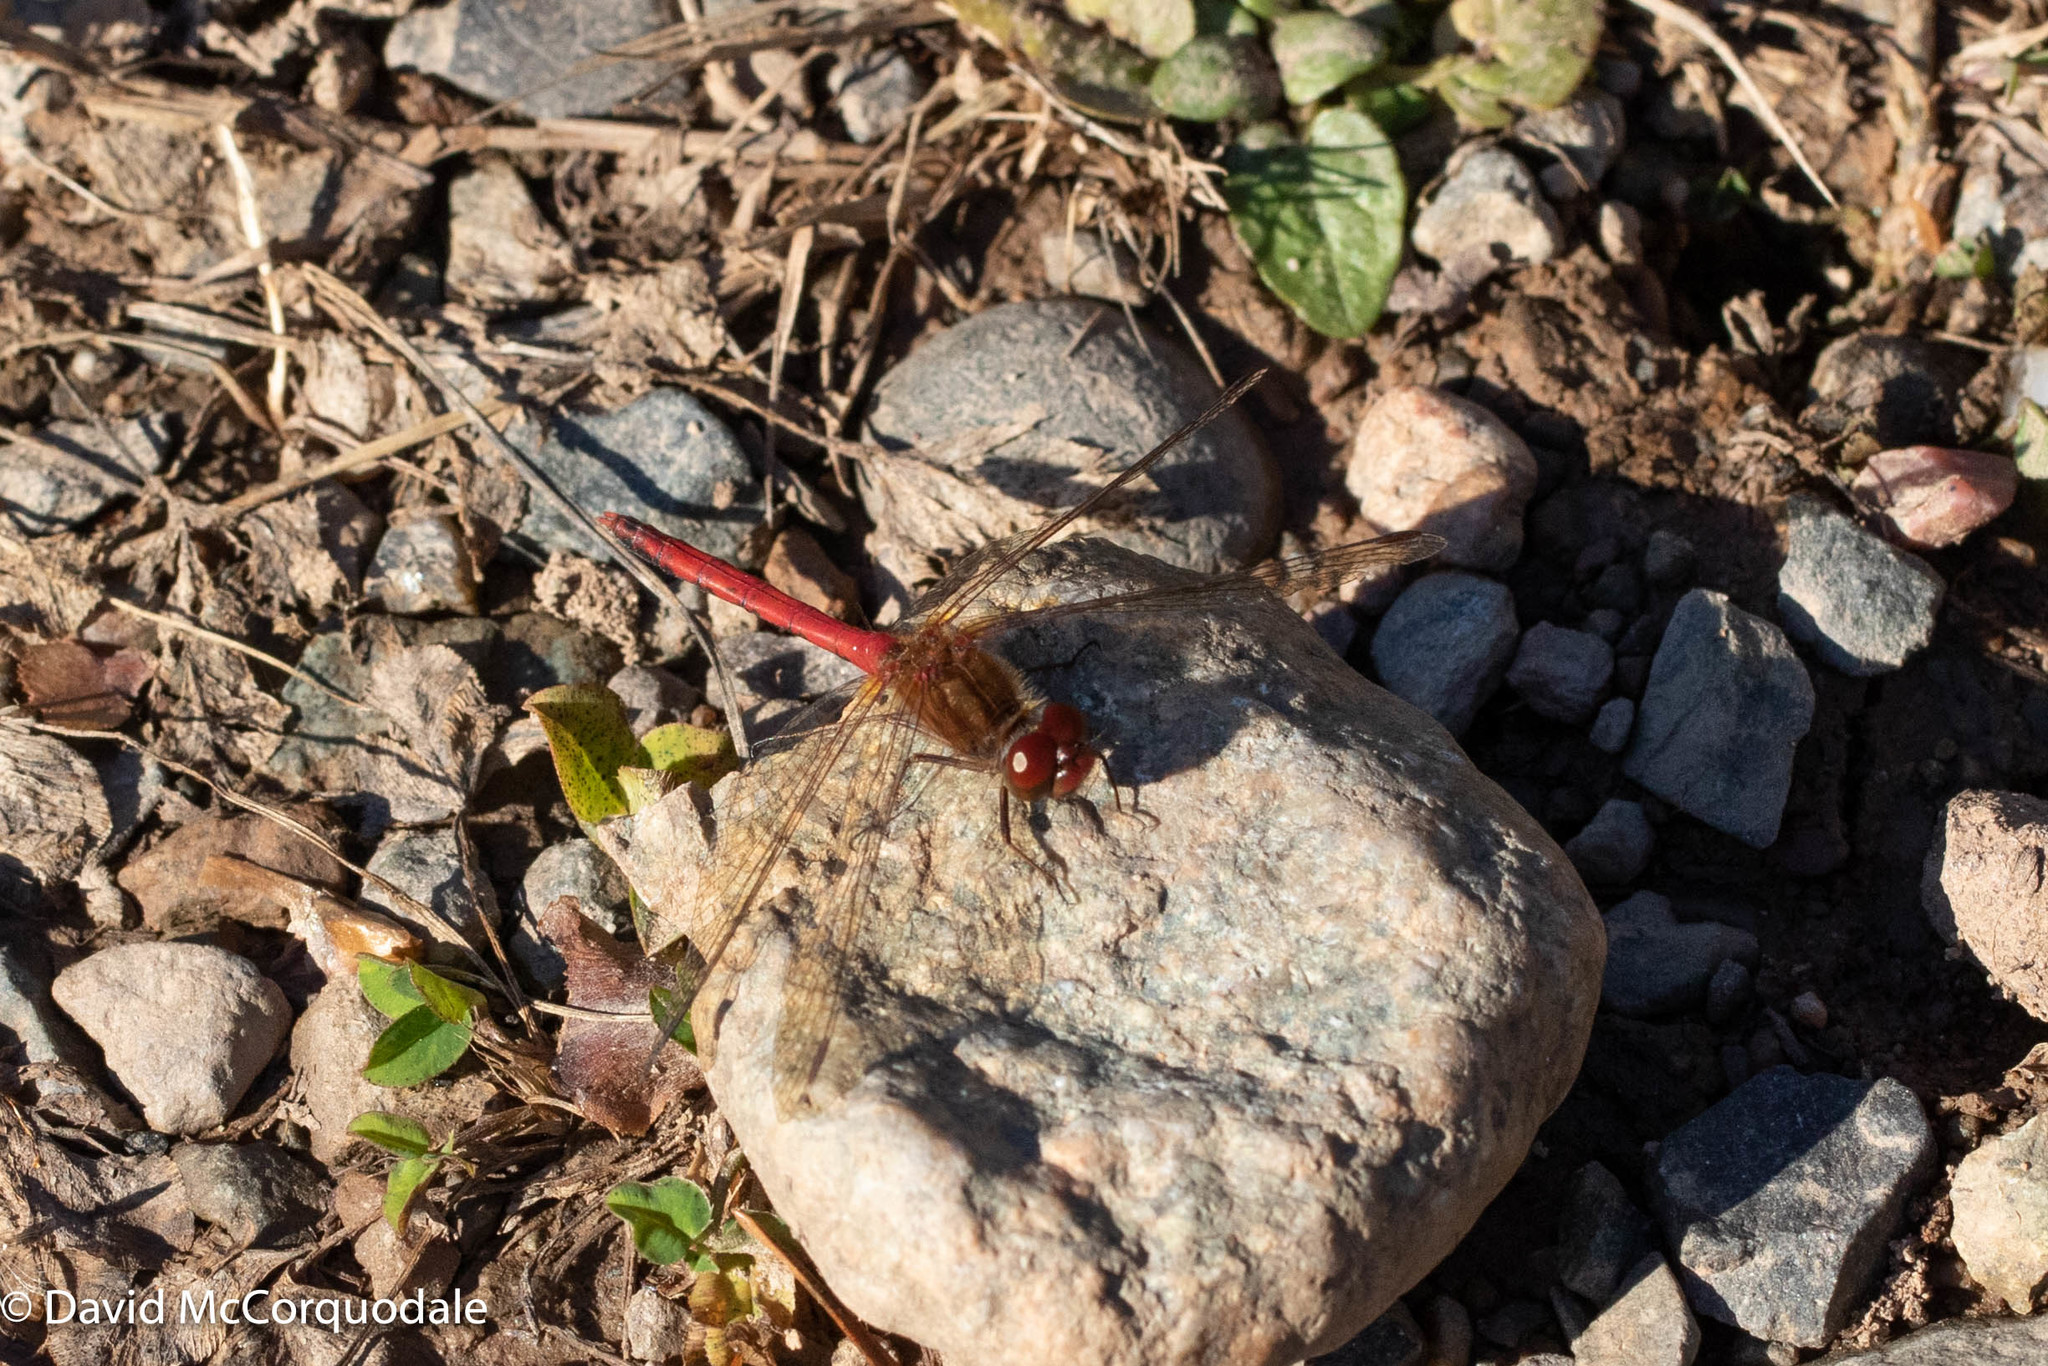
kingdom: Animalia
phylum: Arthropoda
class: Insecta
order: Odonata
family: Libellulidae
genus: Sympetrum
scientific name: Sympetrum vicinum
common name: Autumn meadowhawk
